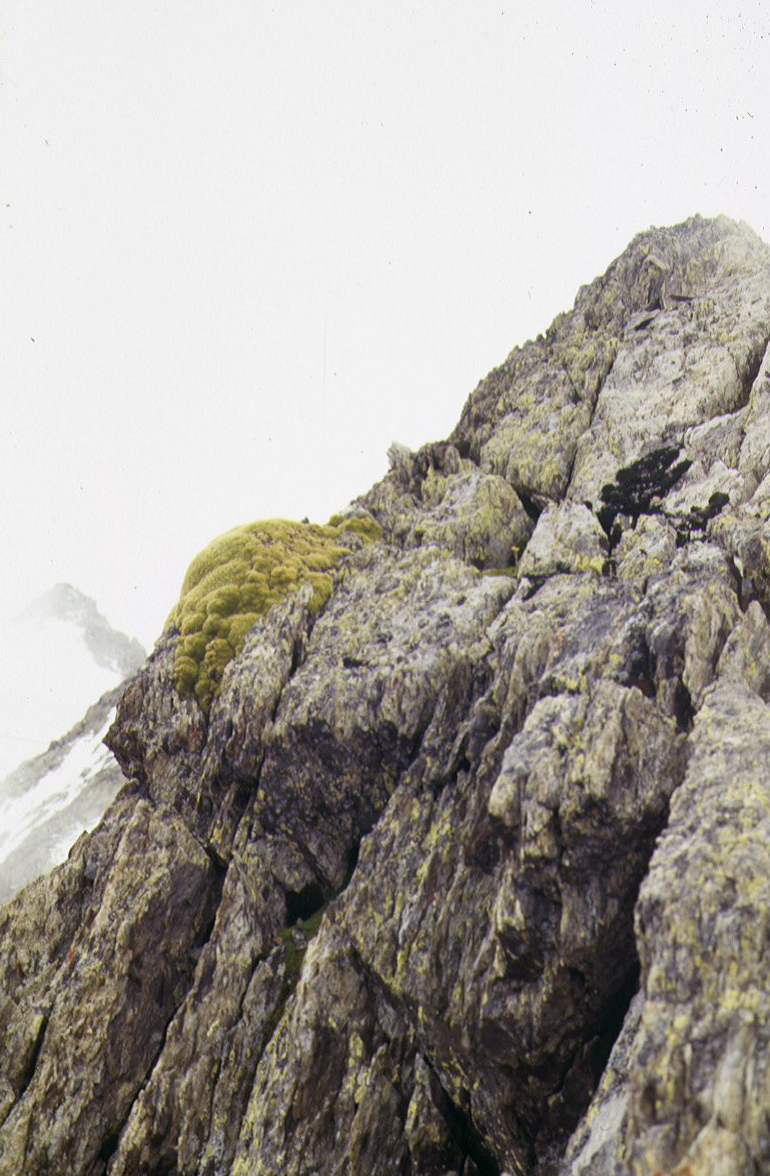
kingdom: Plantae
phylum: Tracheophyta
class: Magnoliopsida
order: Caryophyllales
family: Caryophyllaceae
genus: Thylacospermum
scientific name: Thylacospermum caespitosum
